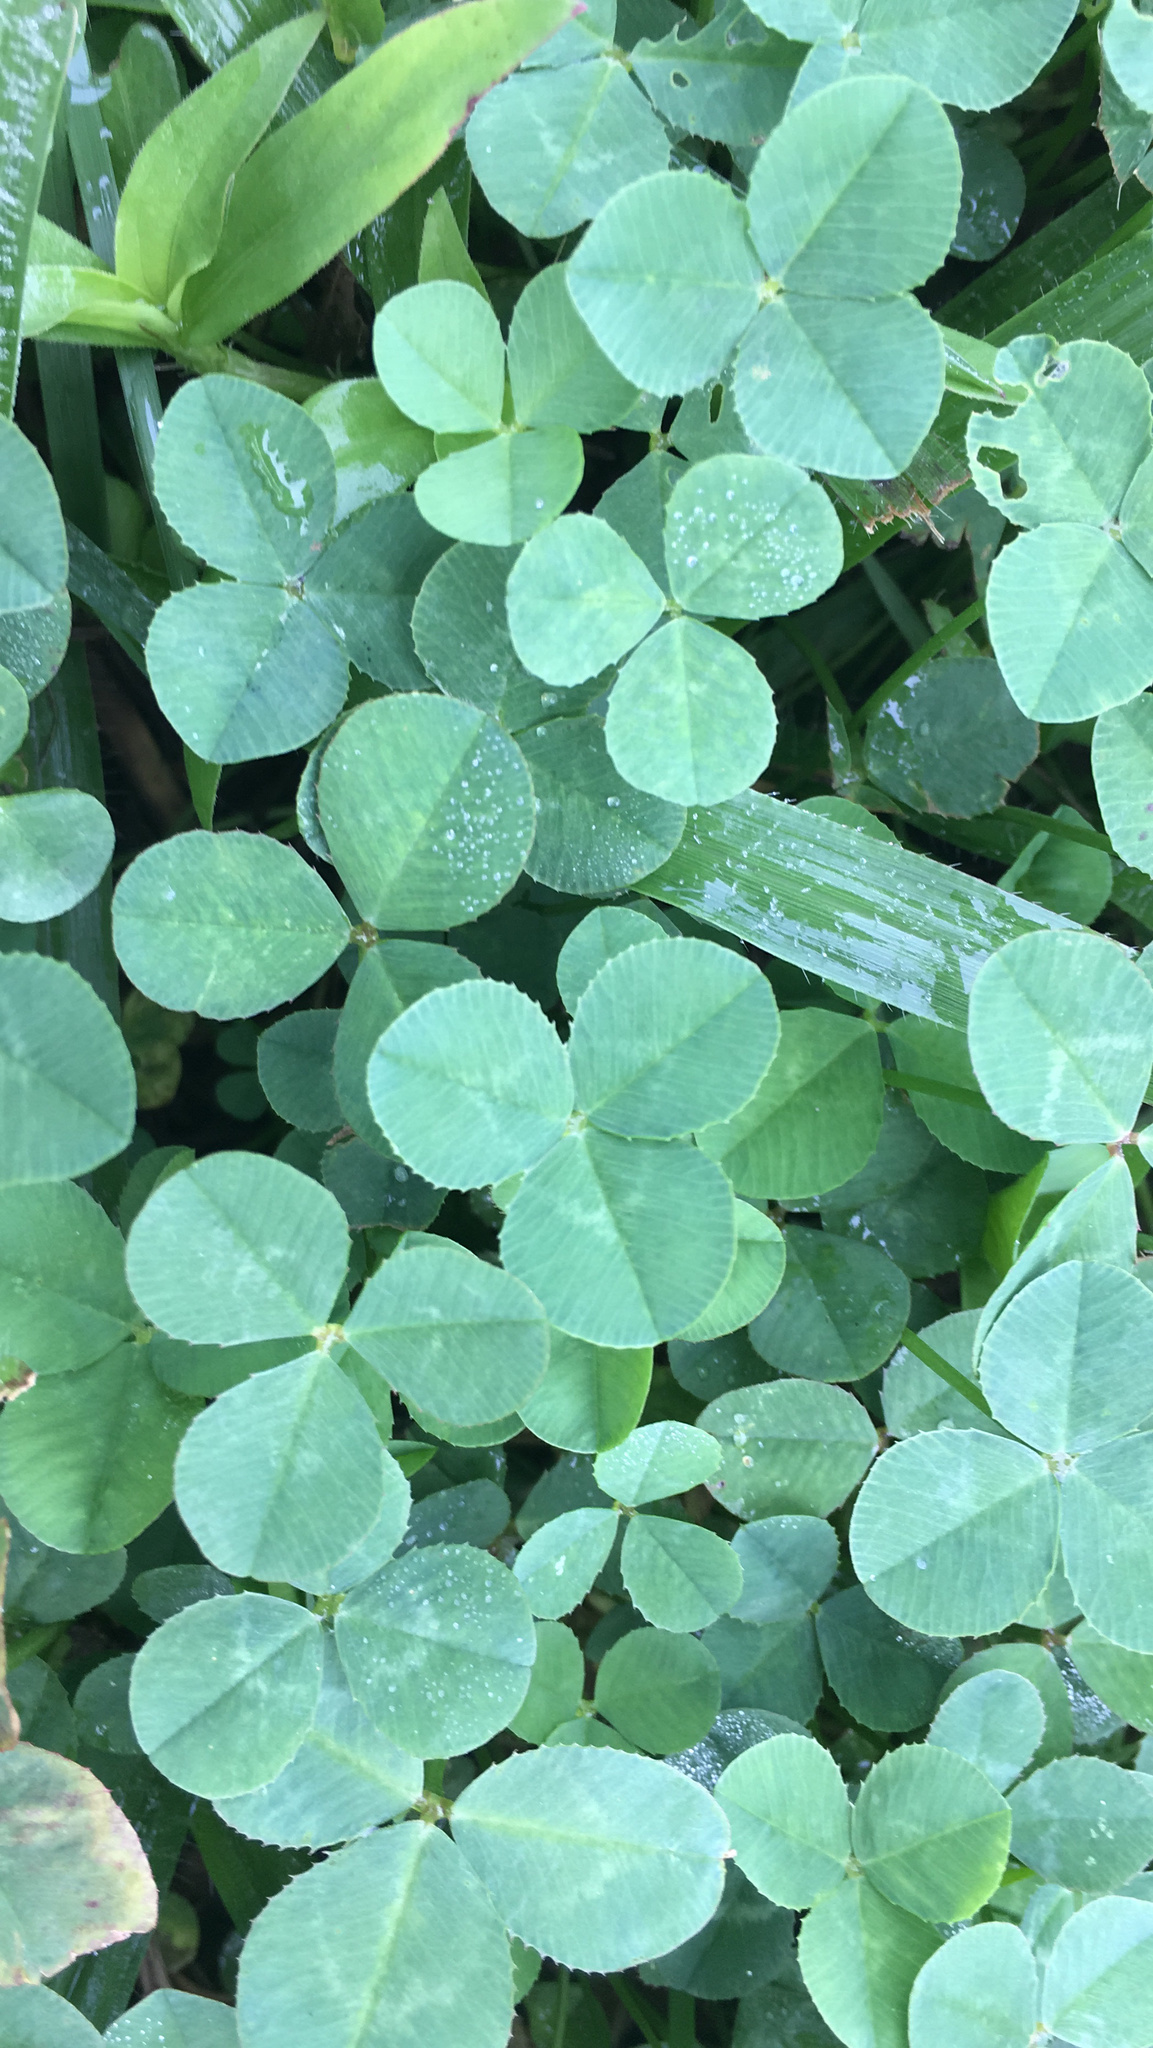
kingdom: Plantae
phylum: Tracheophyta
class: Magnoliopsida
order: Fabales
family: Fabaceae
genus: Trifolium
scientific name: Trifolium repens
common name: White clover
